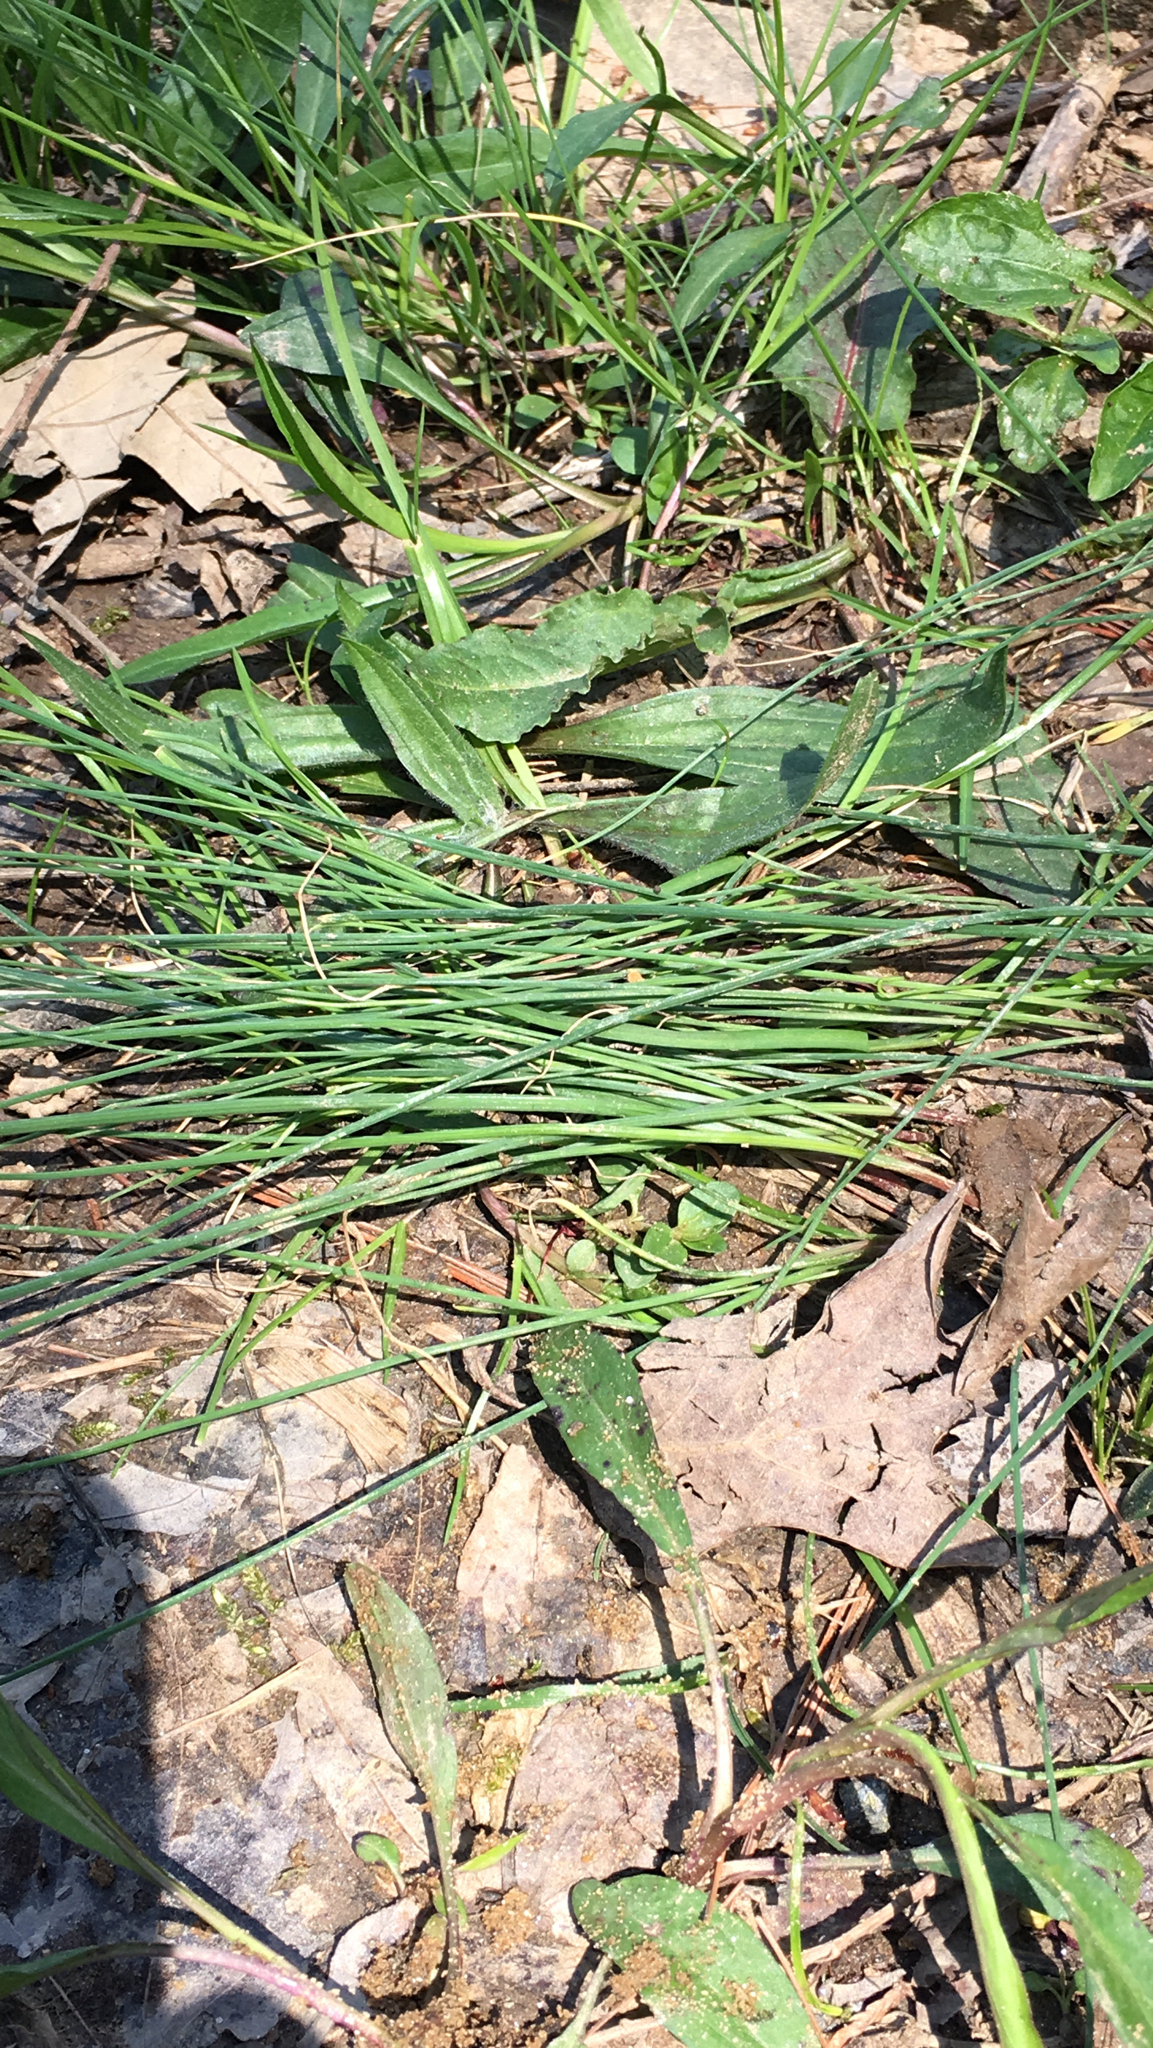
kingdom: Plantae
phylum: Tracheophyta
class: Liliopsida
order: Asparagales
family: Amaryllidaceae
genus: Allium
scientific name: Allium vineale
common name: Crow garlic
